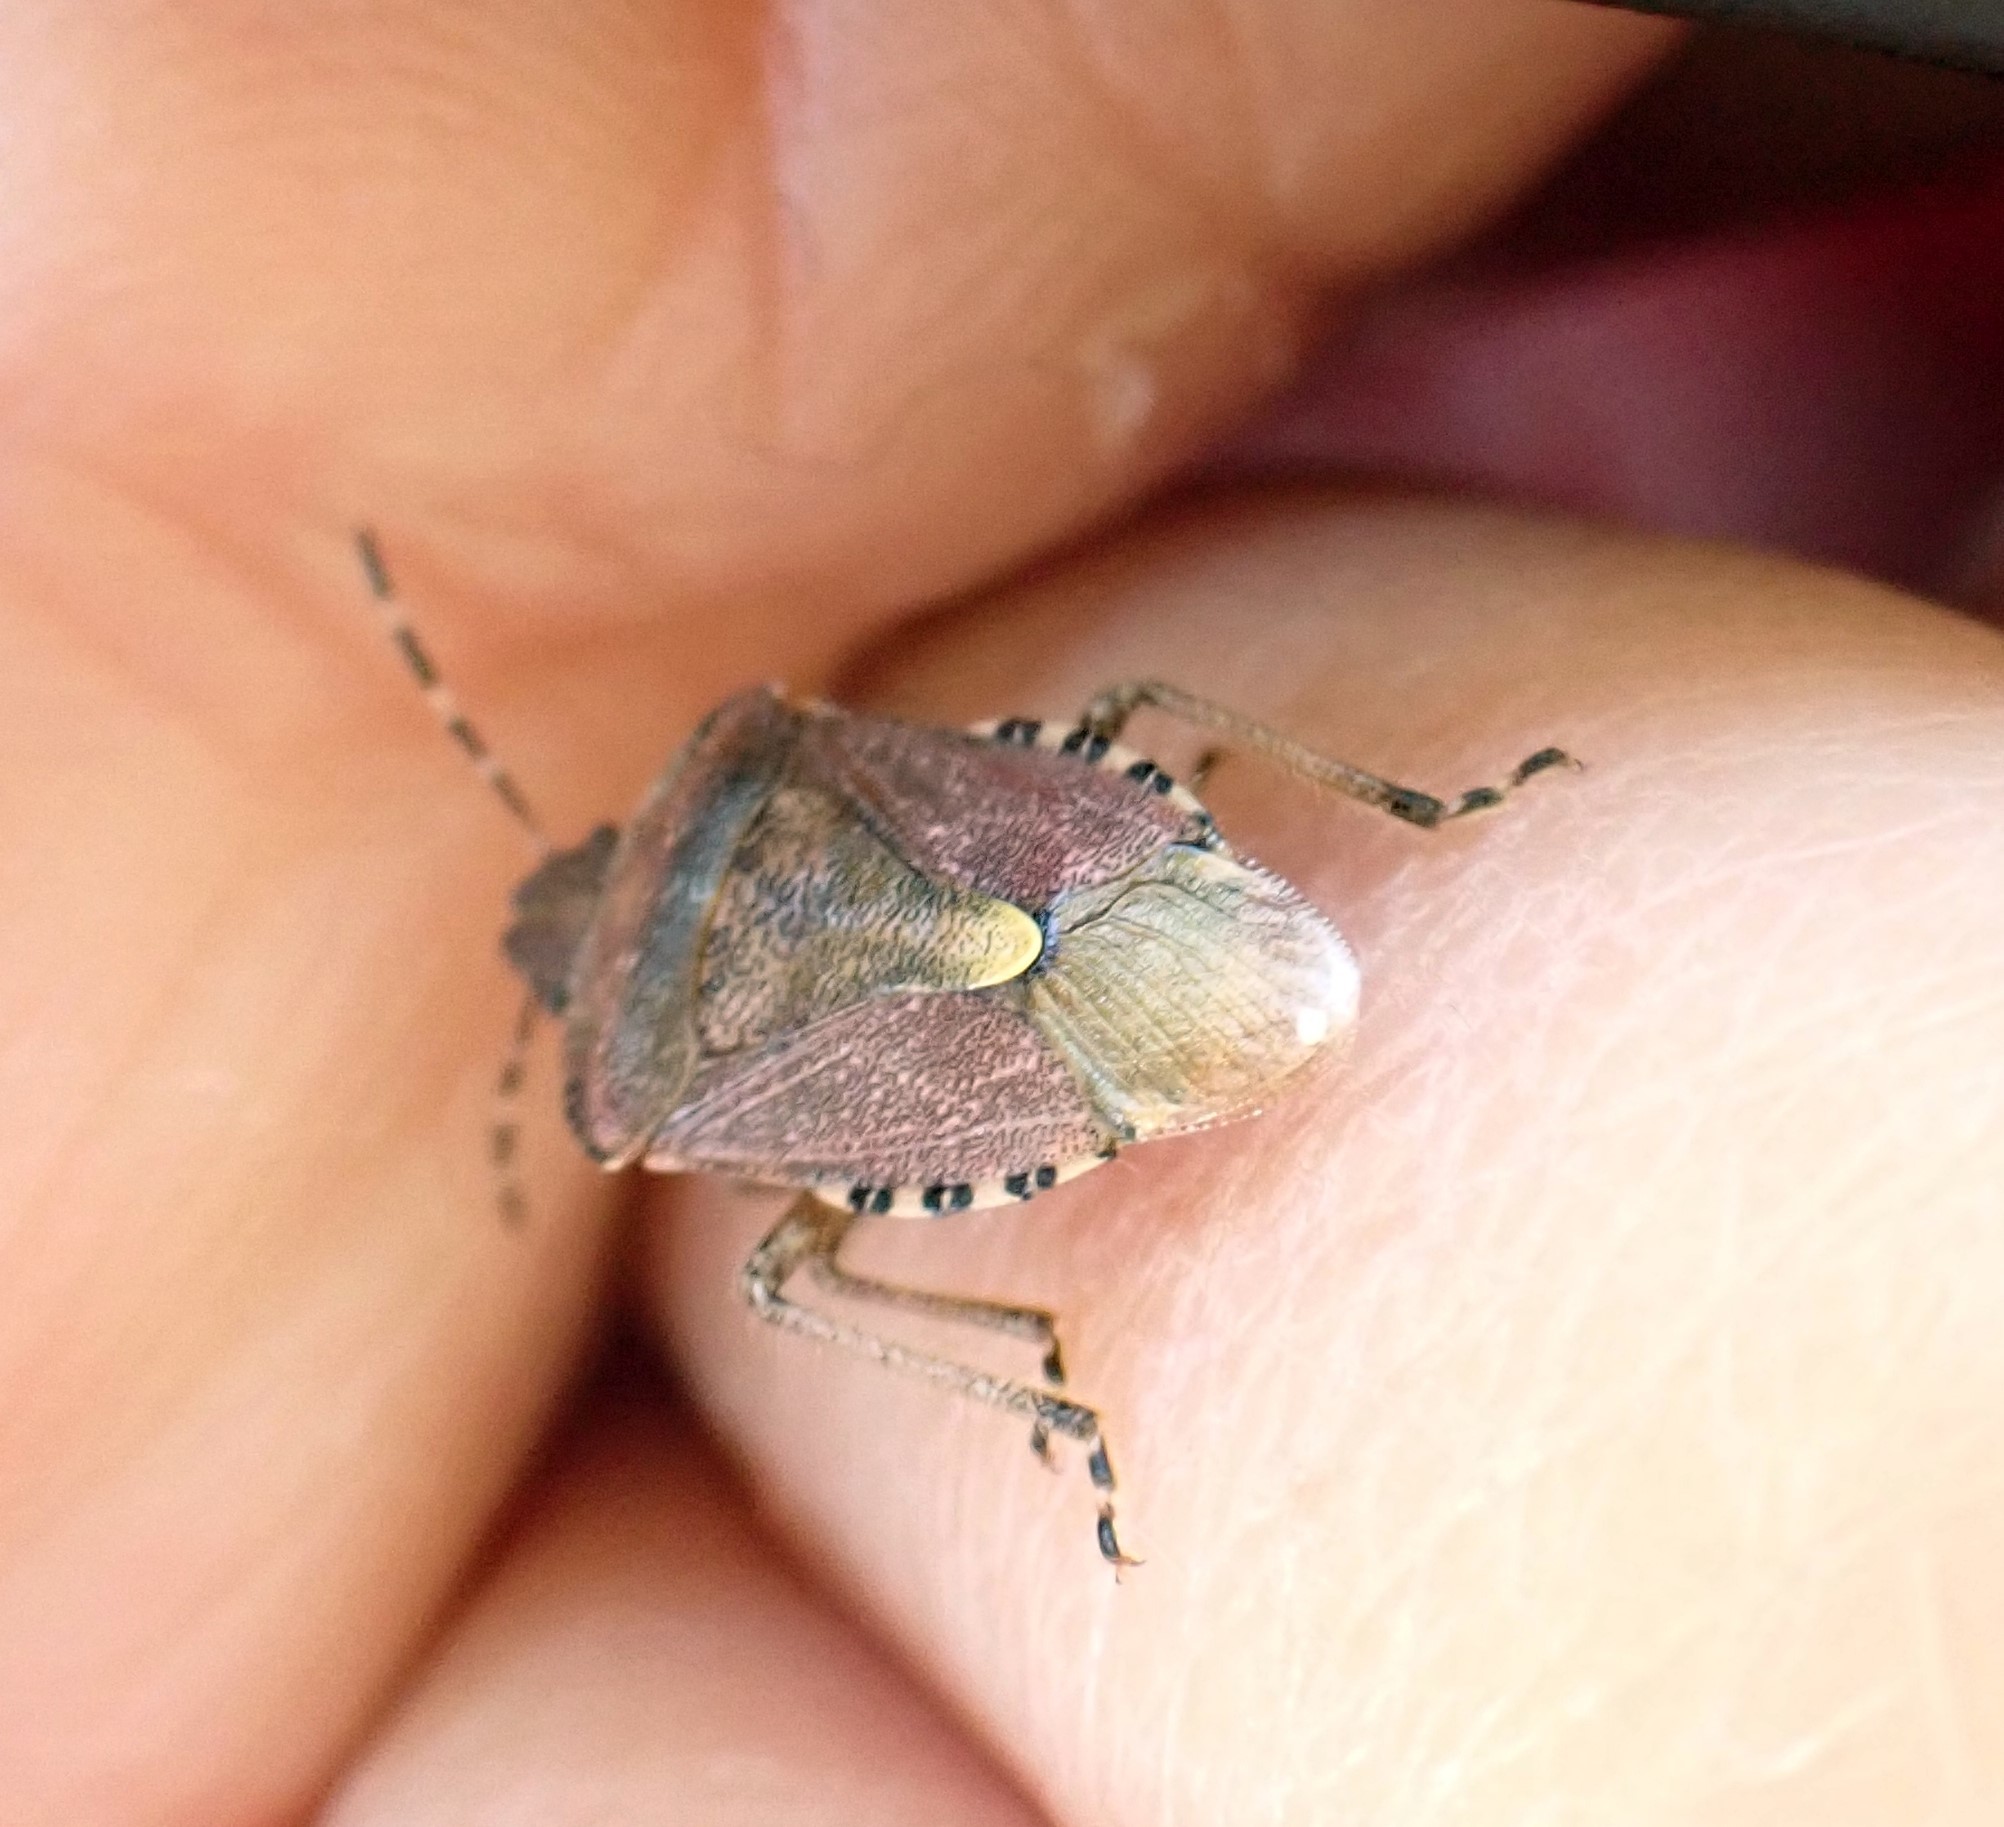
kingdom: Animalia
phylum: Arthropoda
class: Insecta
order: Hemiptera
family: Pentatomidae
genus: Dolycoris
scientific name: Dolycoris baccarum
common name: Sloe bug
